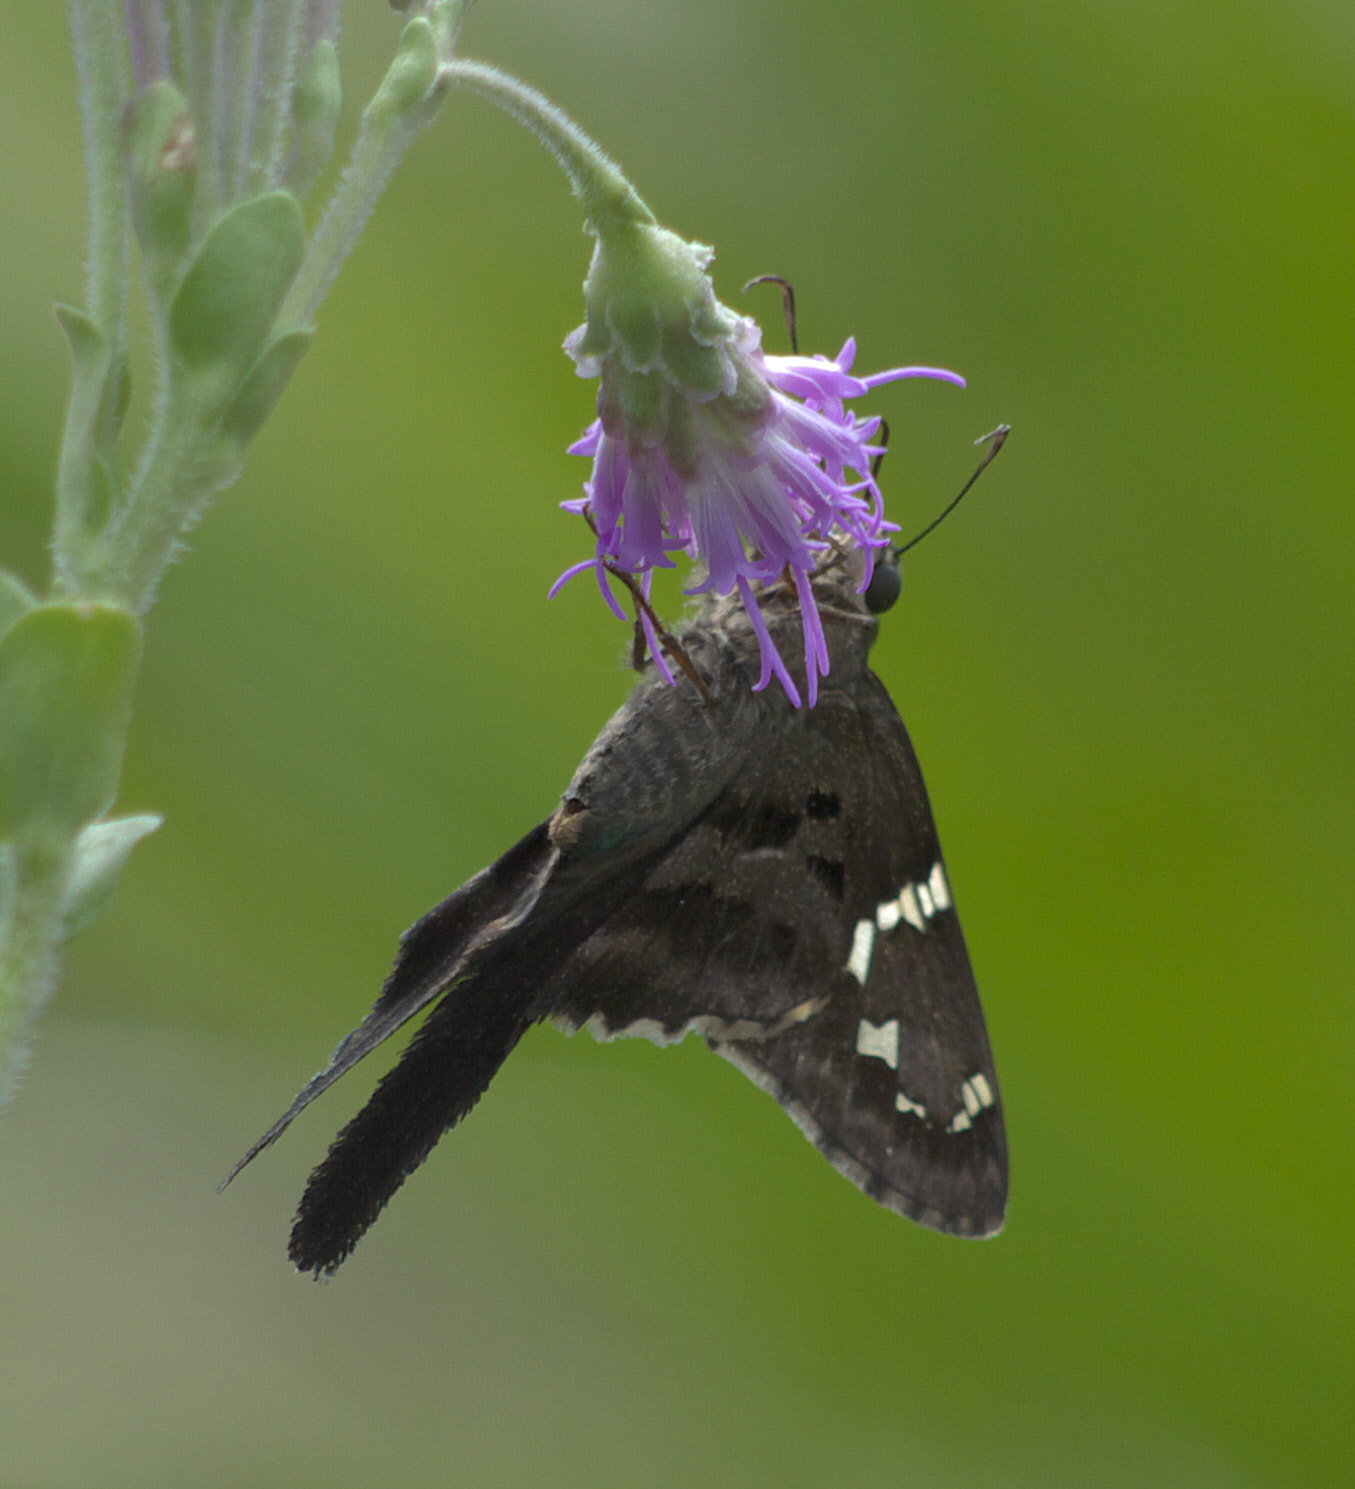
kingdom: Animalia
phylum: Arthropoda
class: Insecta
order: Lepidoptera
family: Hesperiidae
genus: Urbanus
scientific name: Urbanus proteus
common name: Long-tailed skipper
